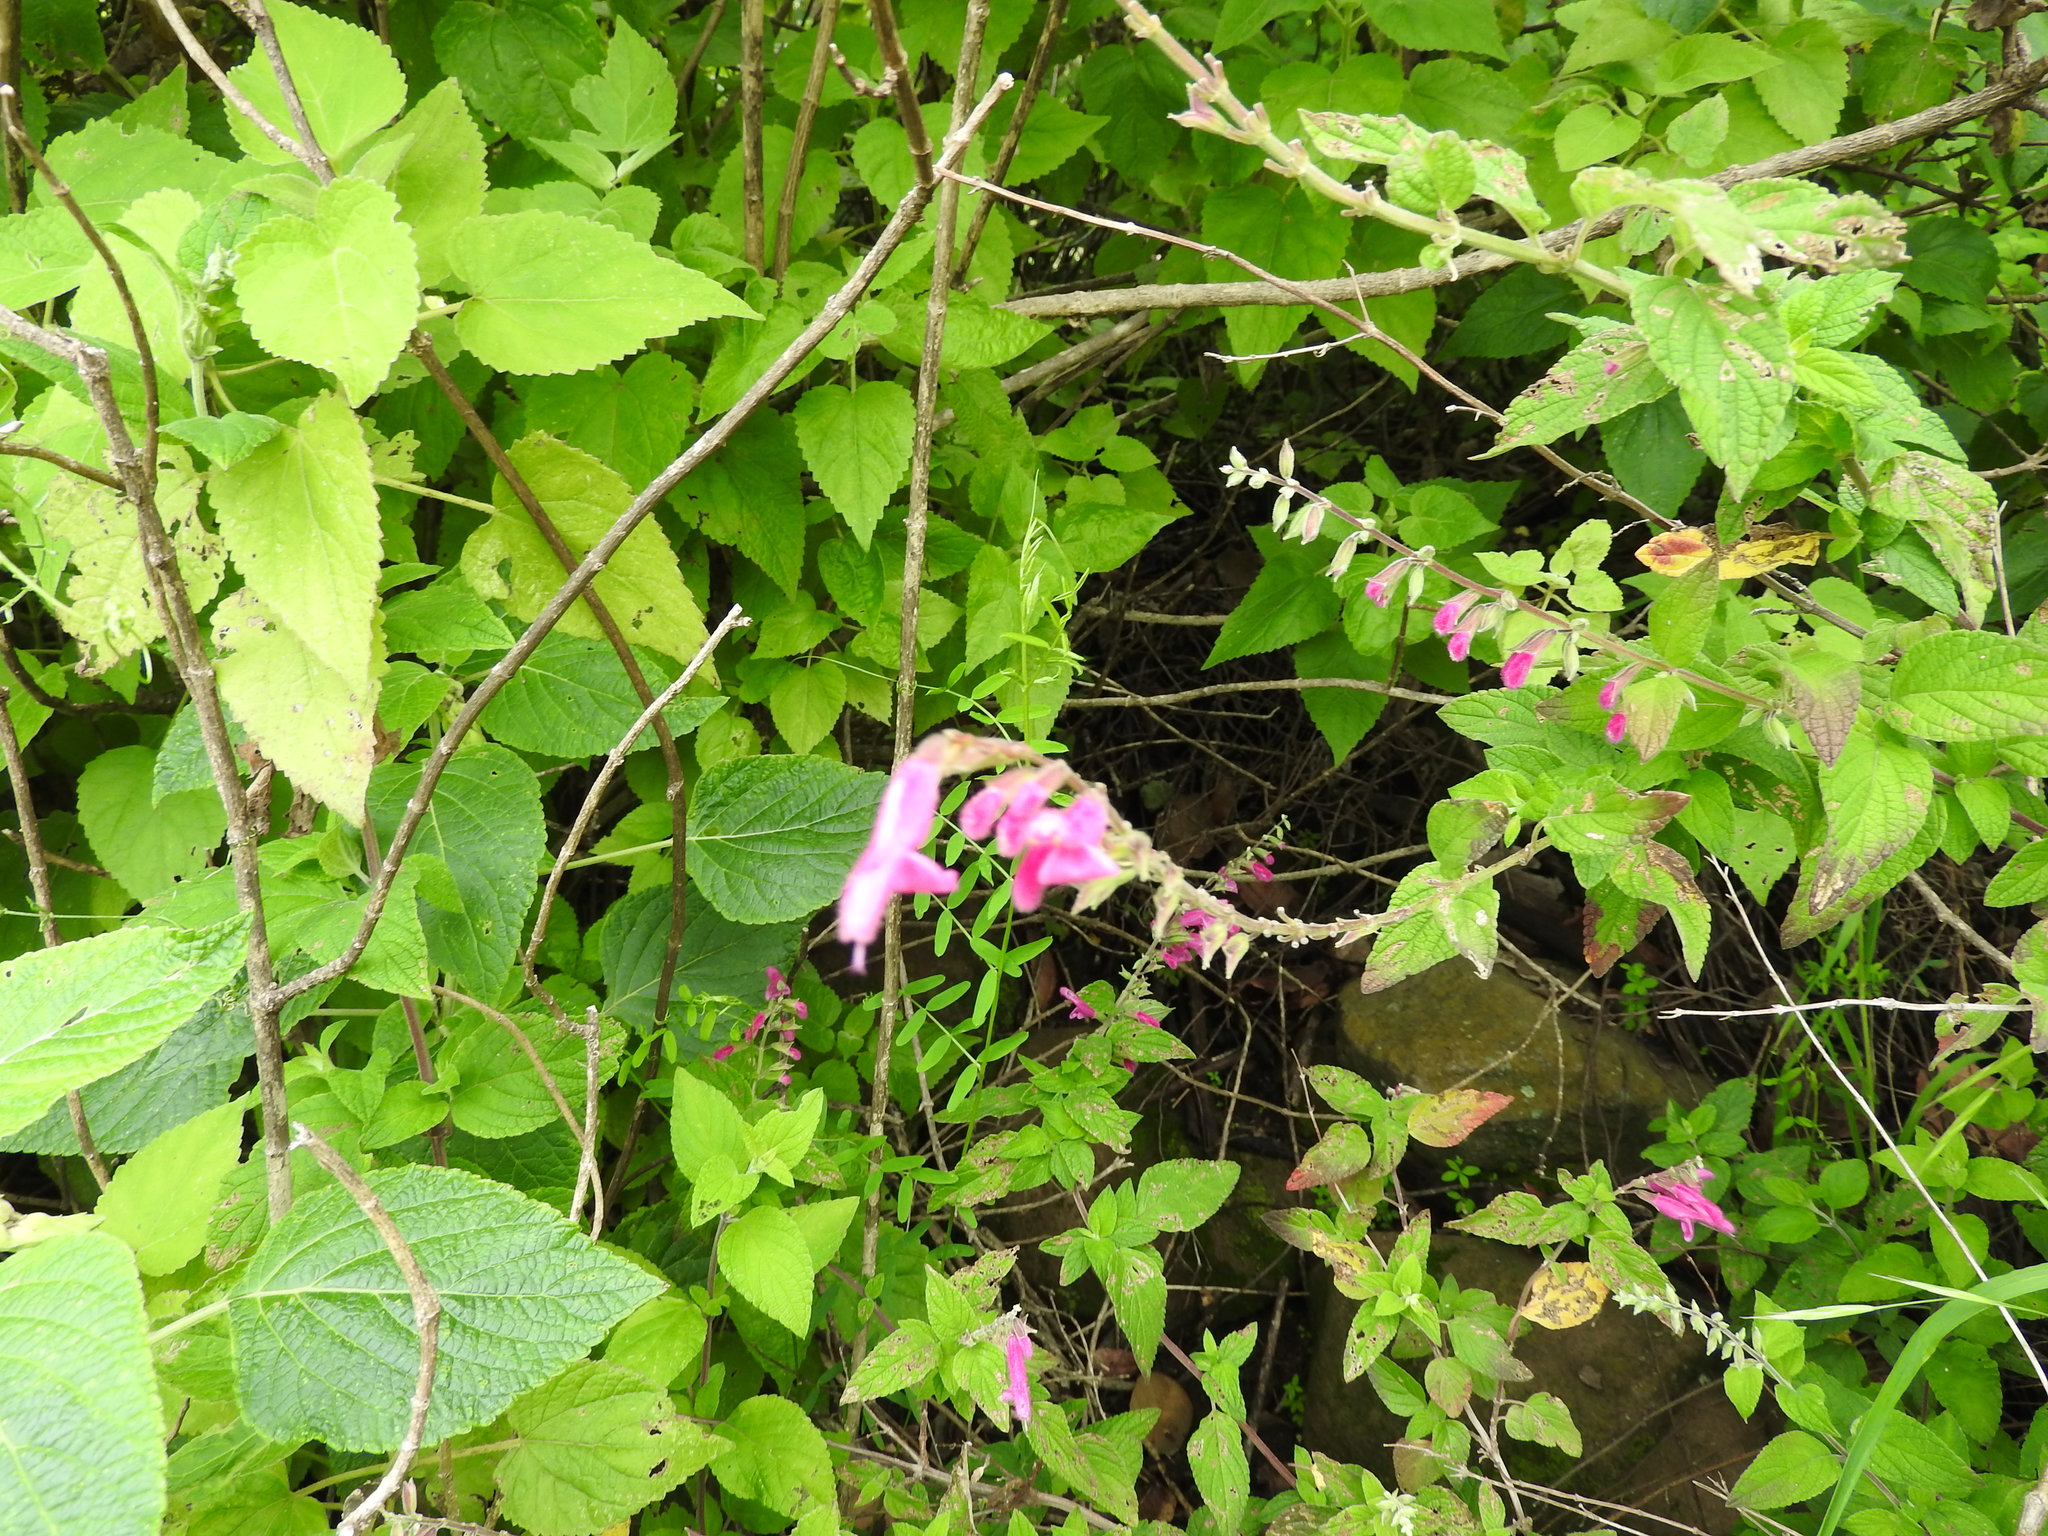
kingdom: Plantae
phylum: Tracheophyta
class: Magnoliopsida
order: Lamiales
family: Lamiaceae
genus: Salvia
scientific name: Salvia curviflora
